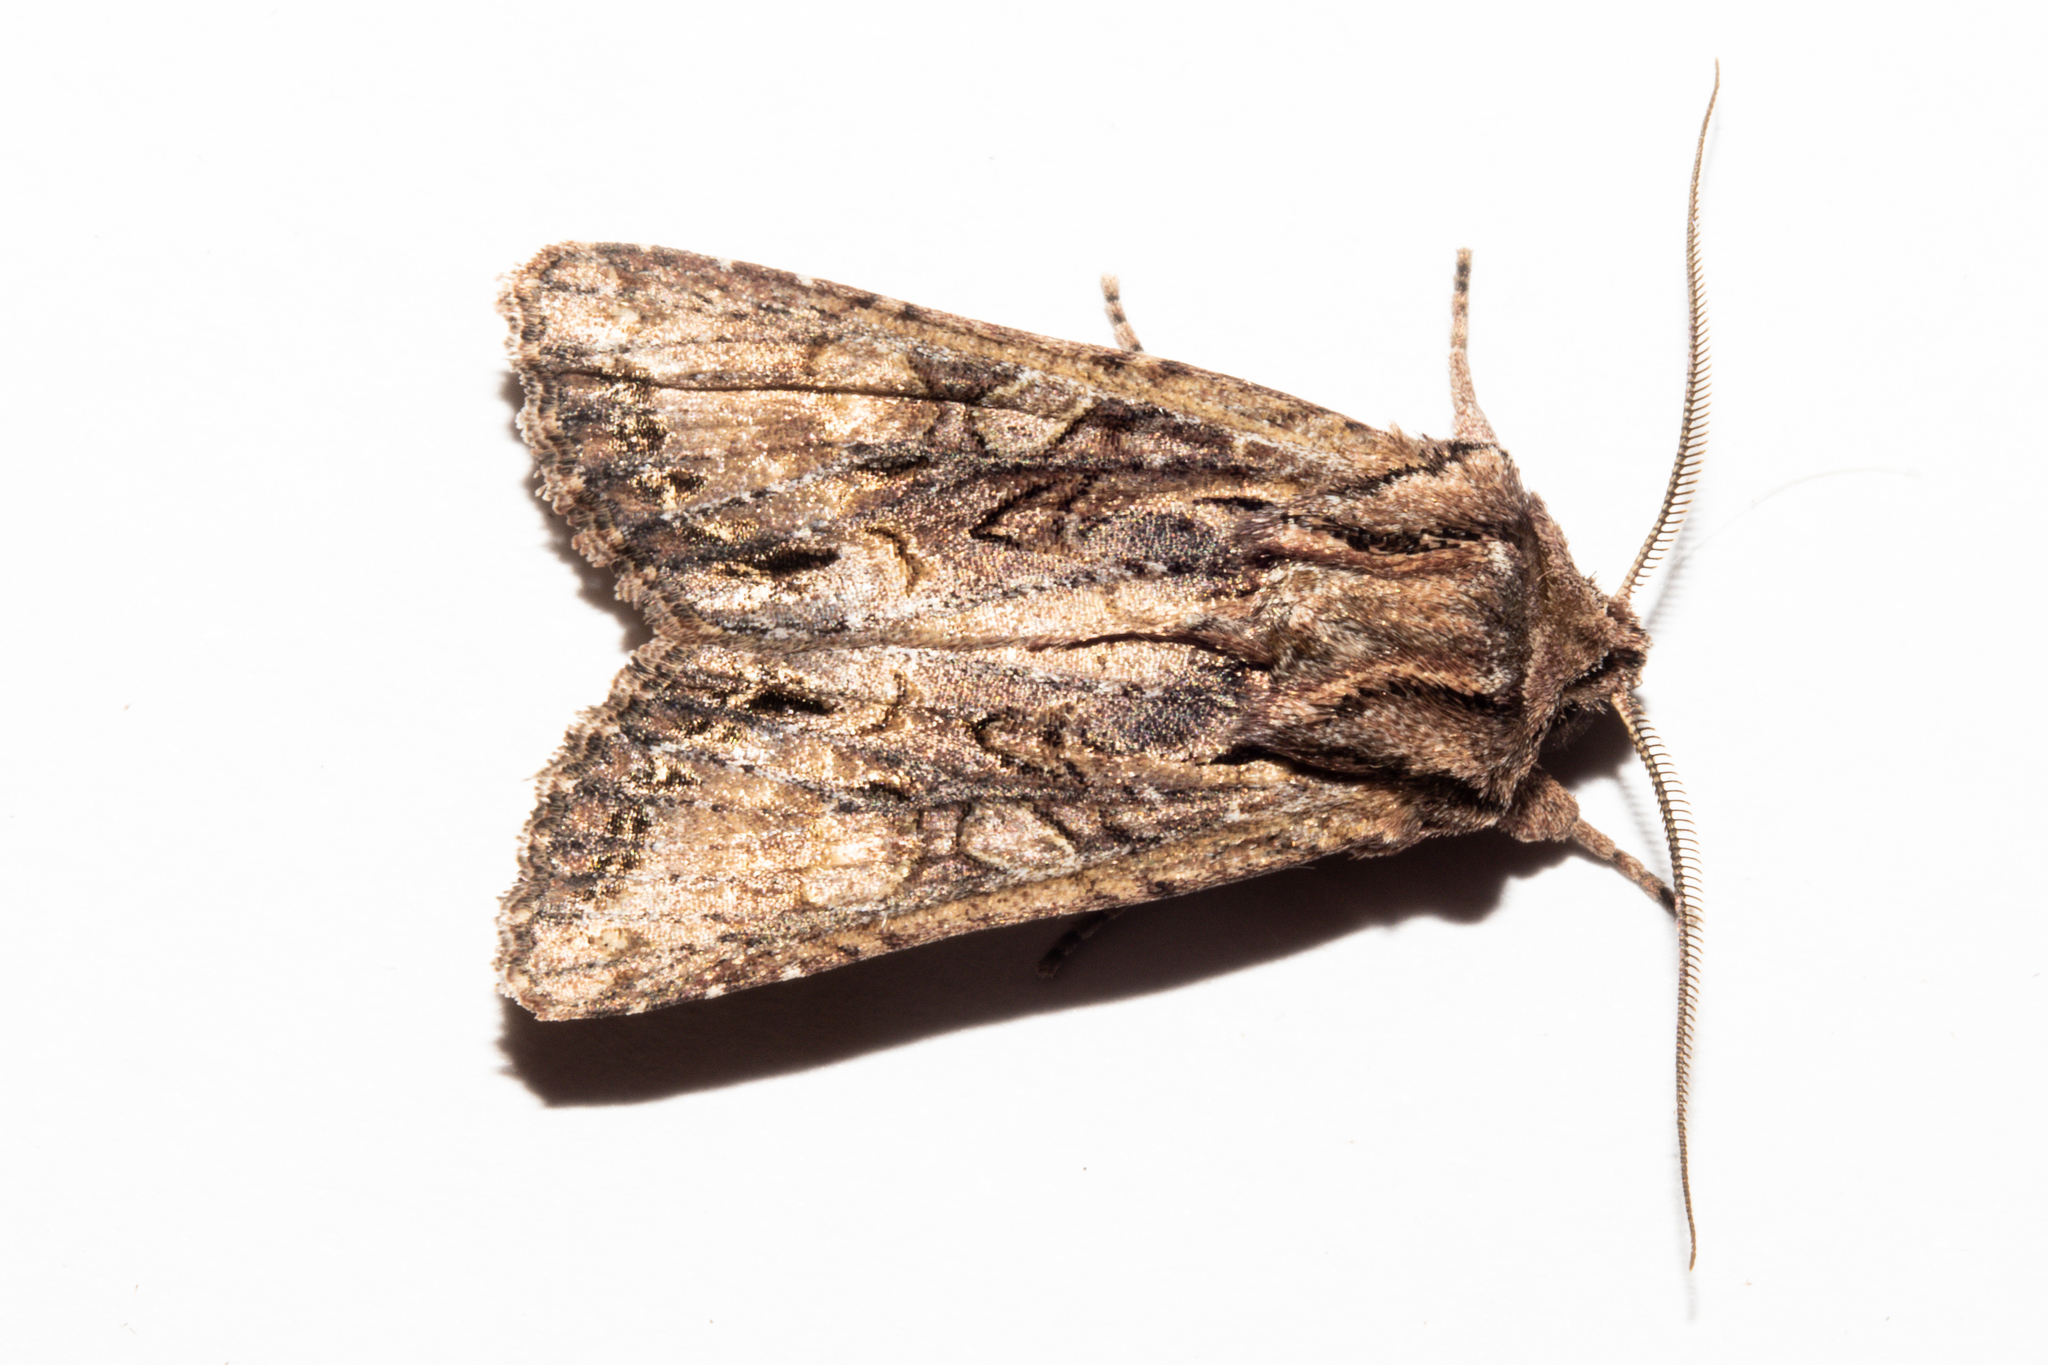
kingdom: Animalia
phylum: Arthropoda
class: Insecta
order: Lepidoptera
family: Noctuidae
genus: Ichneutica
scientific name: Ichneutica mutans
